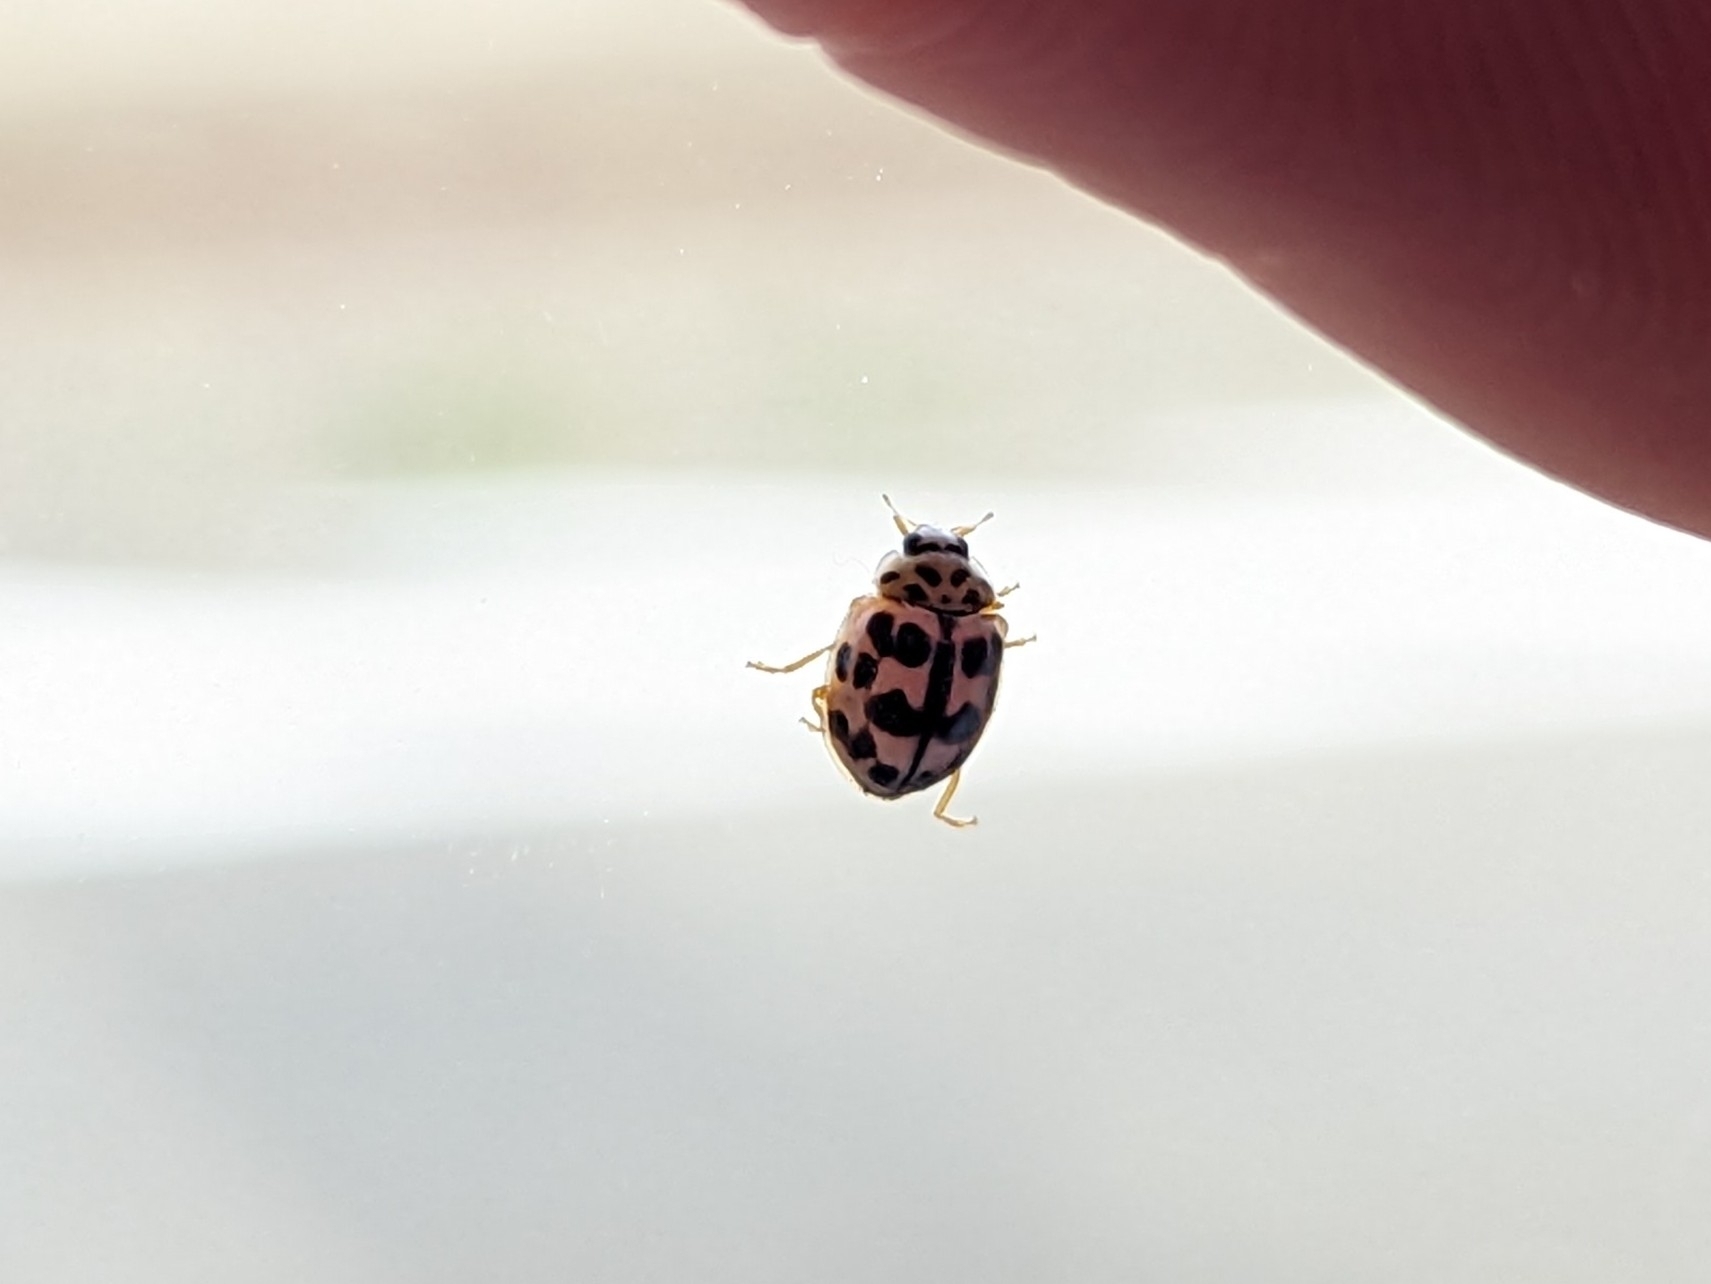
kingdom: Animalia
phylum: Arthropoda
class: Insecta
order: Coleoptera
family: Coccinellidae
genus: Oenopia
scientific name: Oenopia conglobata
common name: Ladybird beetle
